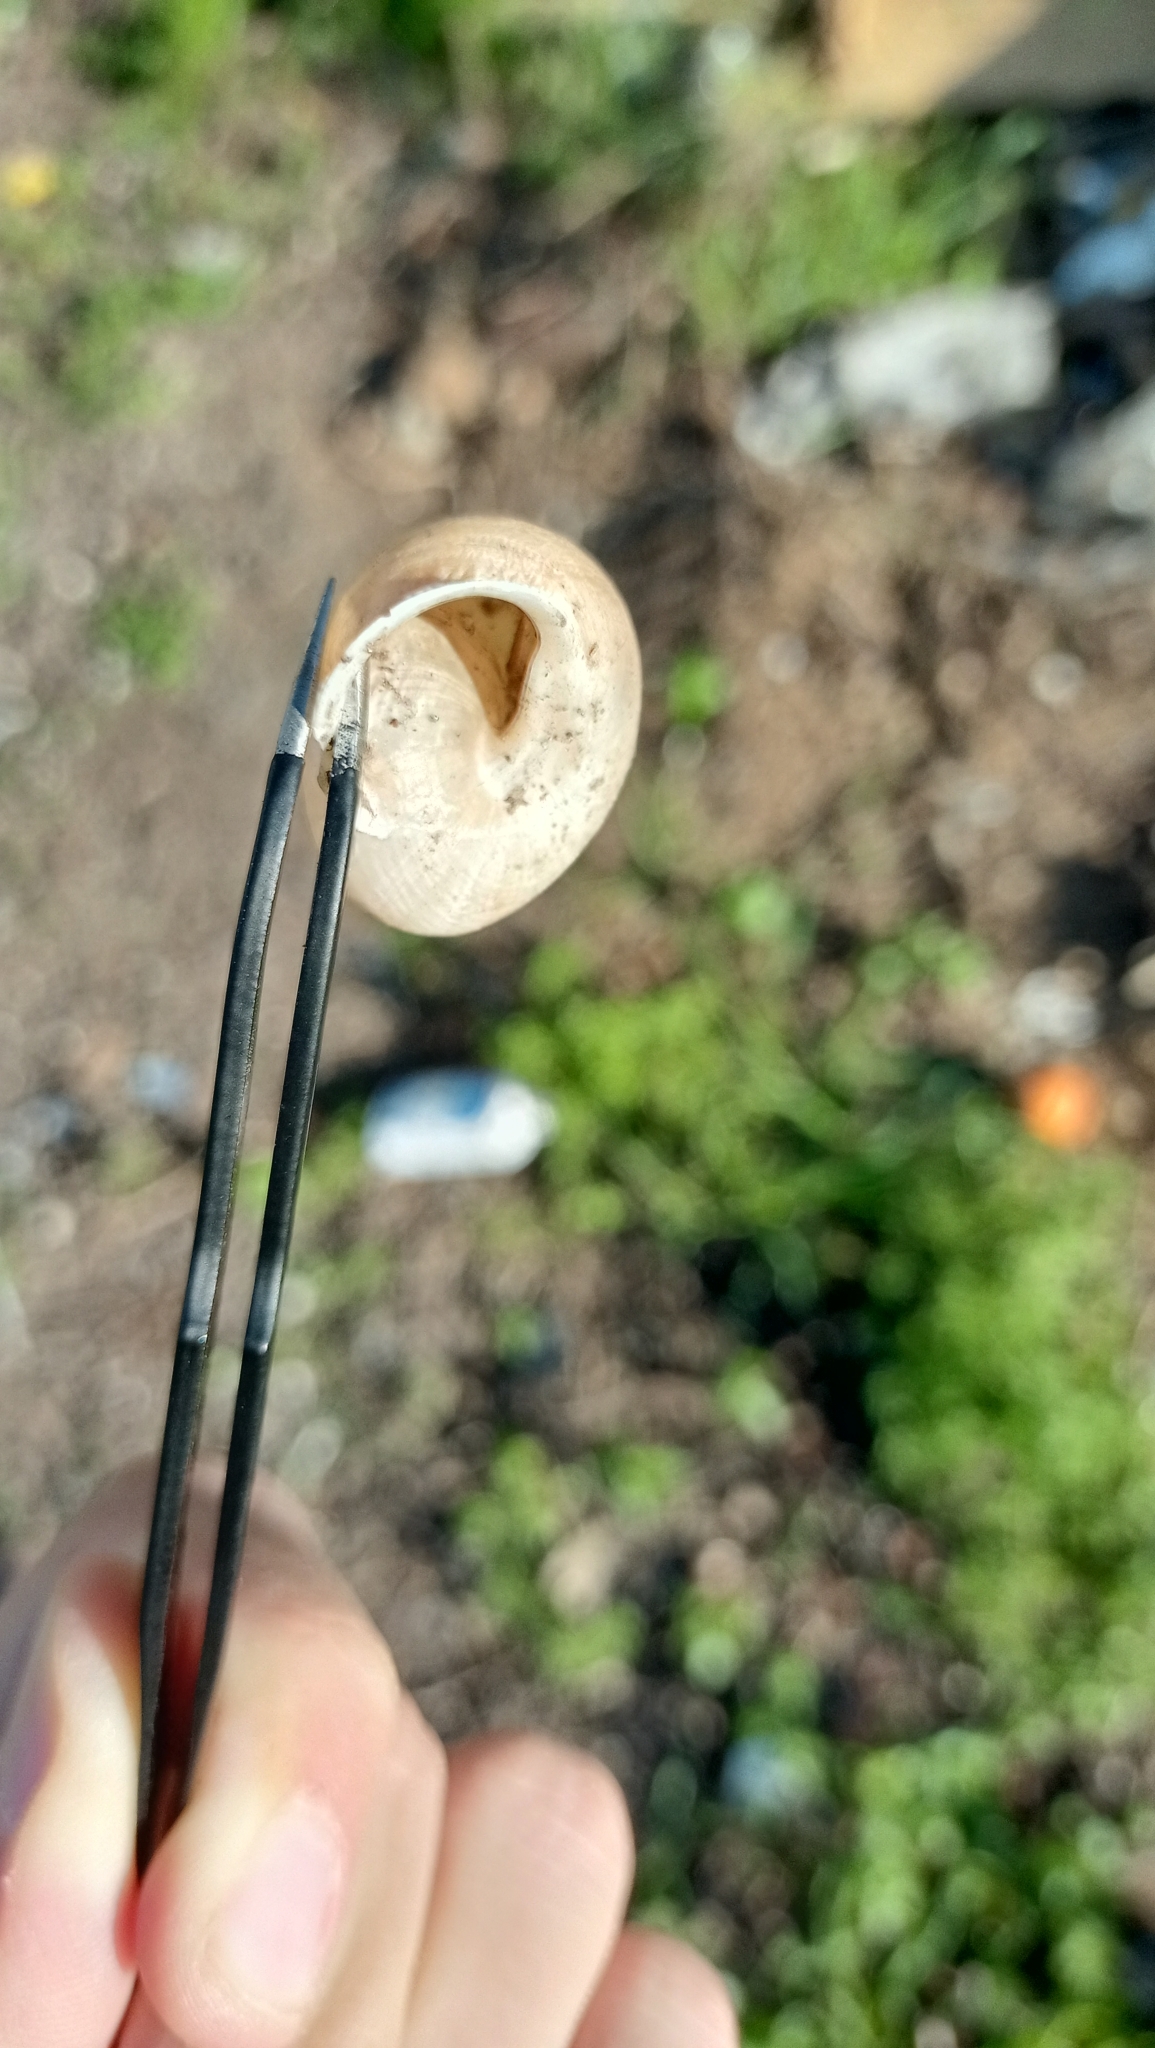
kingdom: Animalia
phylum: Mollusca
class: Gastropoda
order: Stylommatophora
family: Helicidae
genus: Eobania
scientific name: Eobania vermiculata
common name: Chocolateband snail
